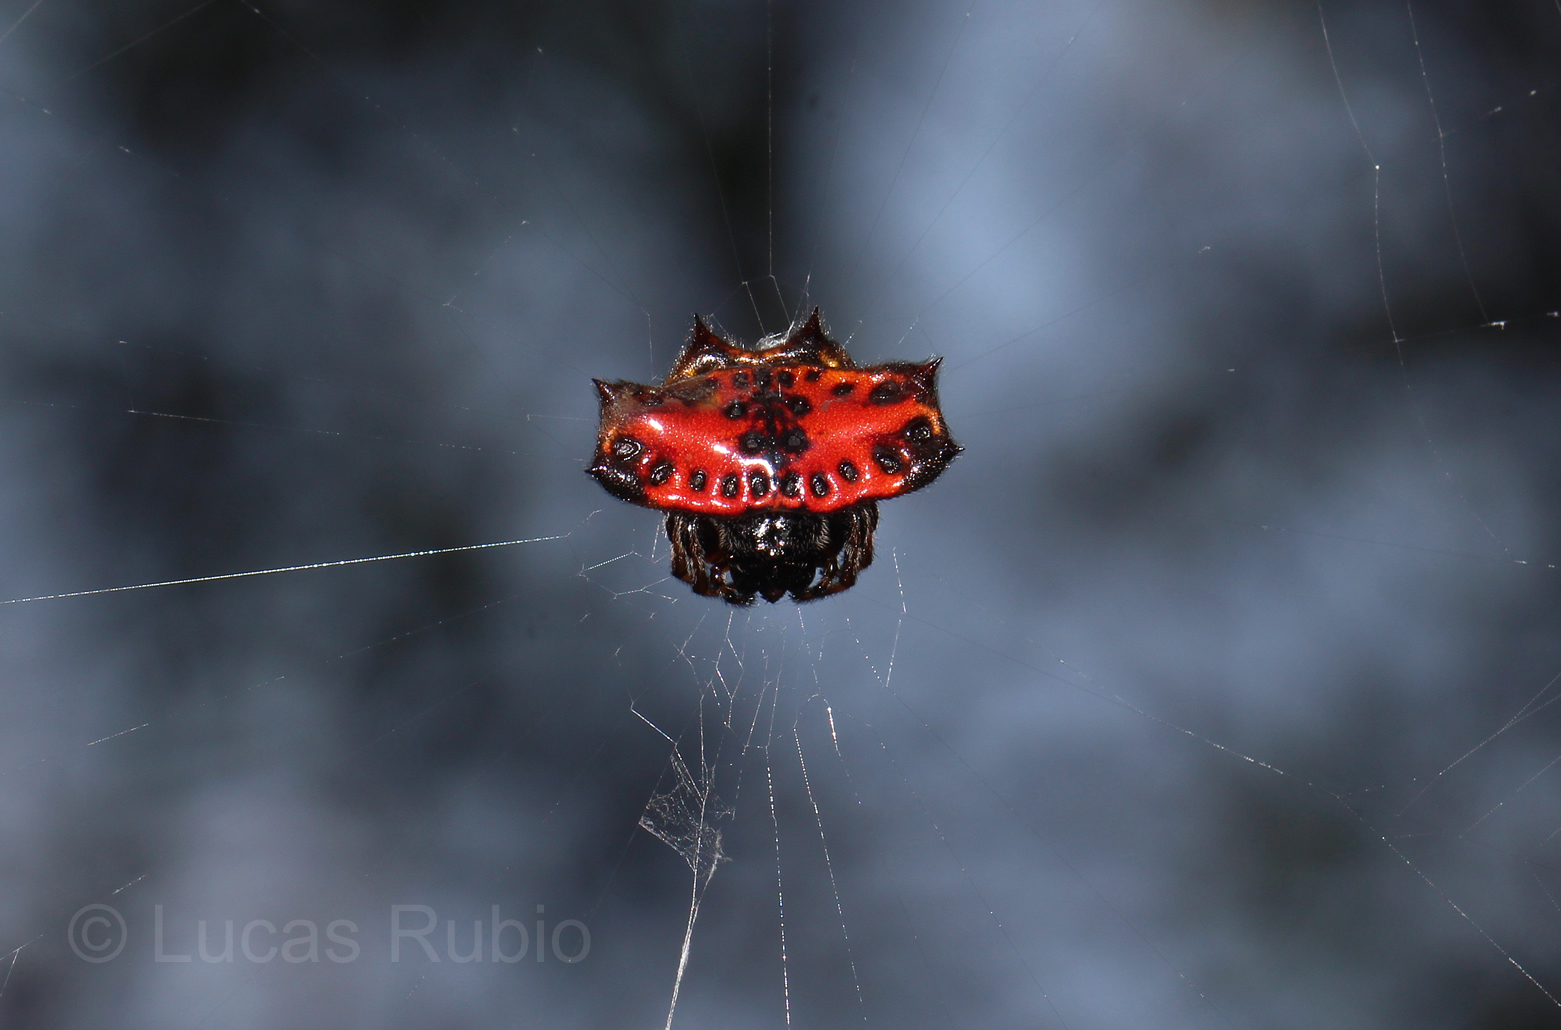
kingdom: Animalia
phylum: Arthropoda
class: Arachnida
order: Araneae
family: Araneidae
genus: Gasteracantha
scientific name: Gasteracantha cancriformis
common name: Orb weavers
